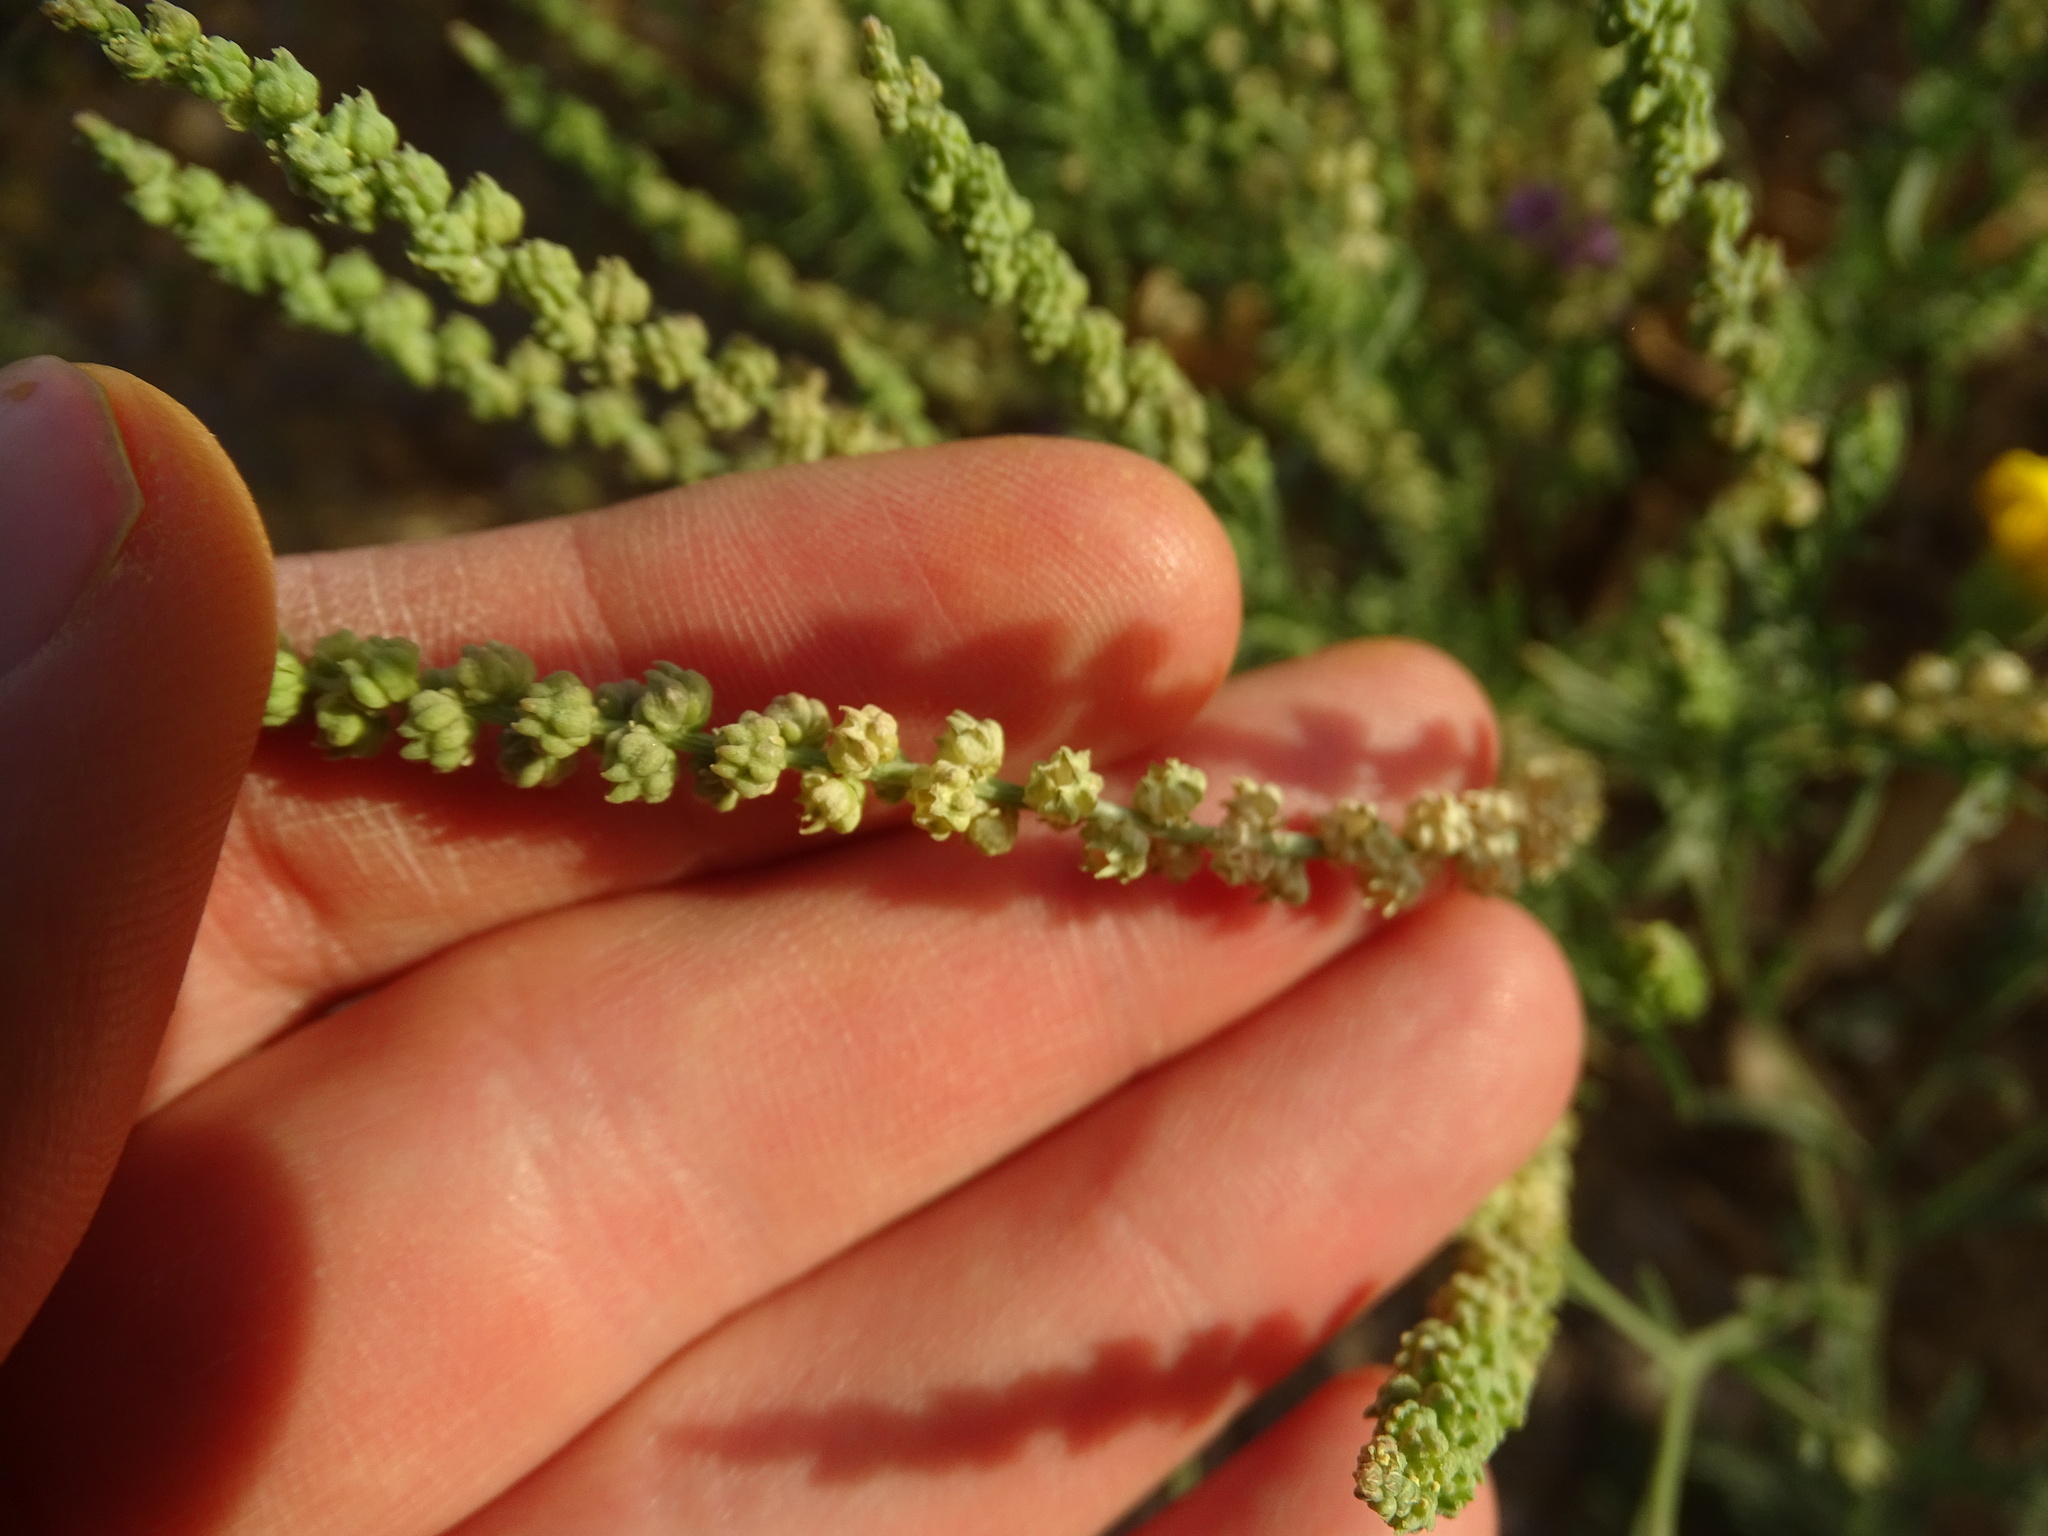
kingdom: Plantae
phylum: Tracheophyta
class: Magnoliopsida
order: Brassicales
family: Resedaceae
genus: Oligomeris
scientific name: Oligomeris linifolia
